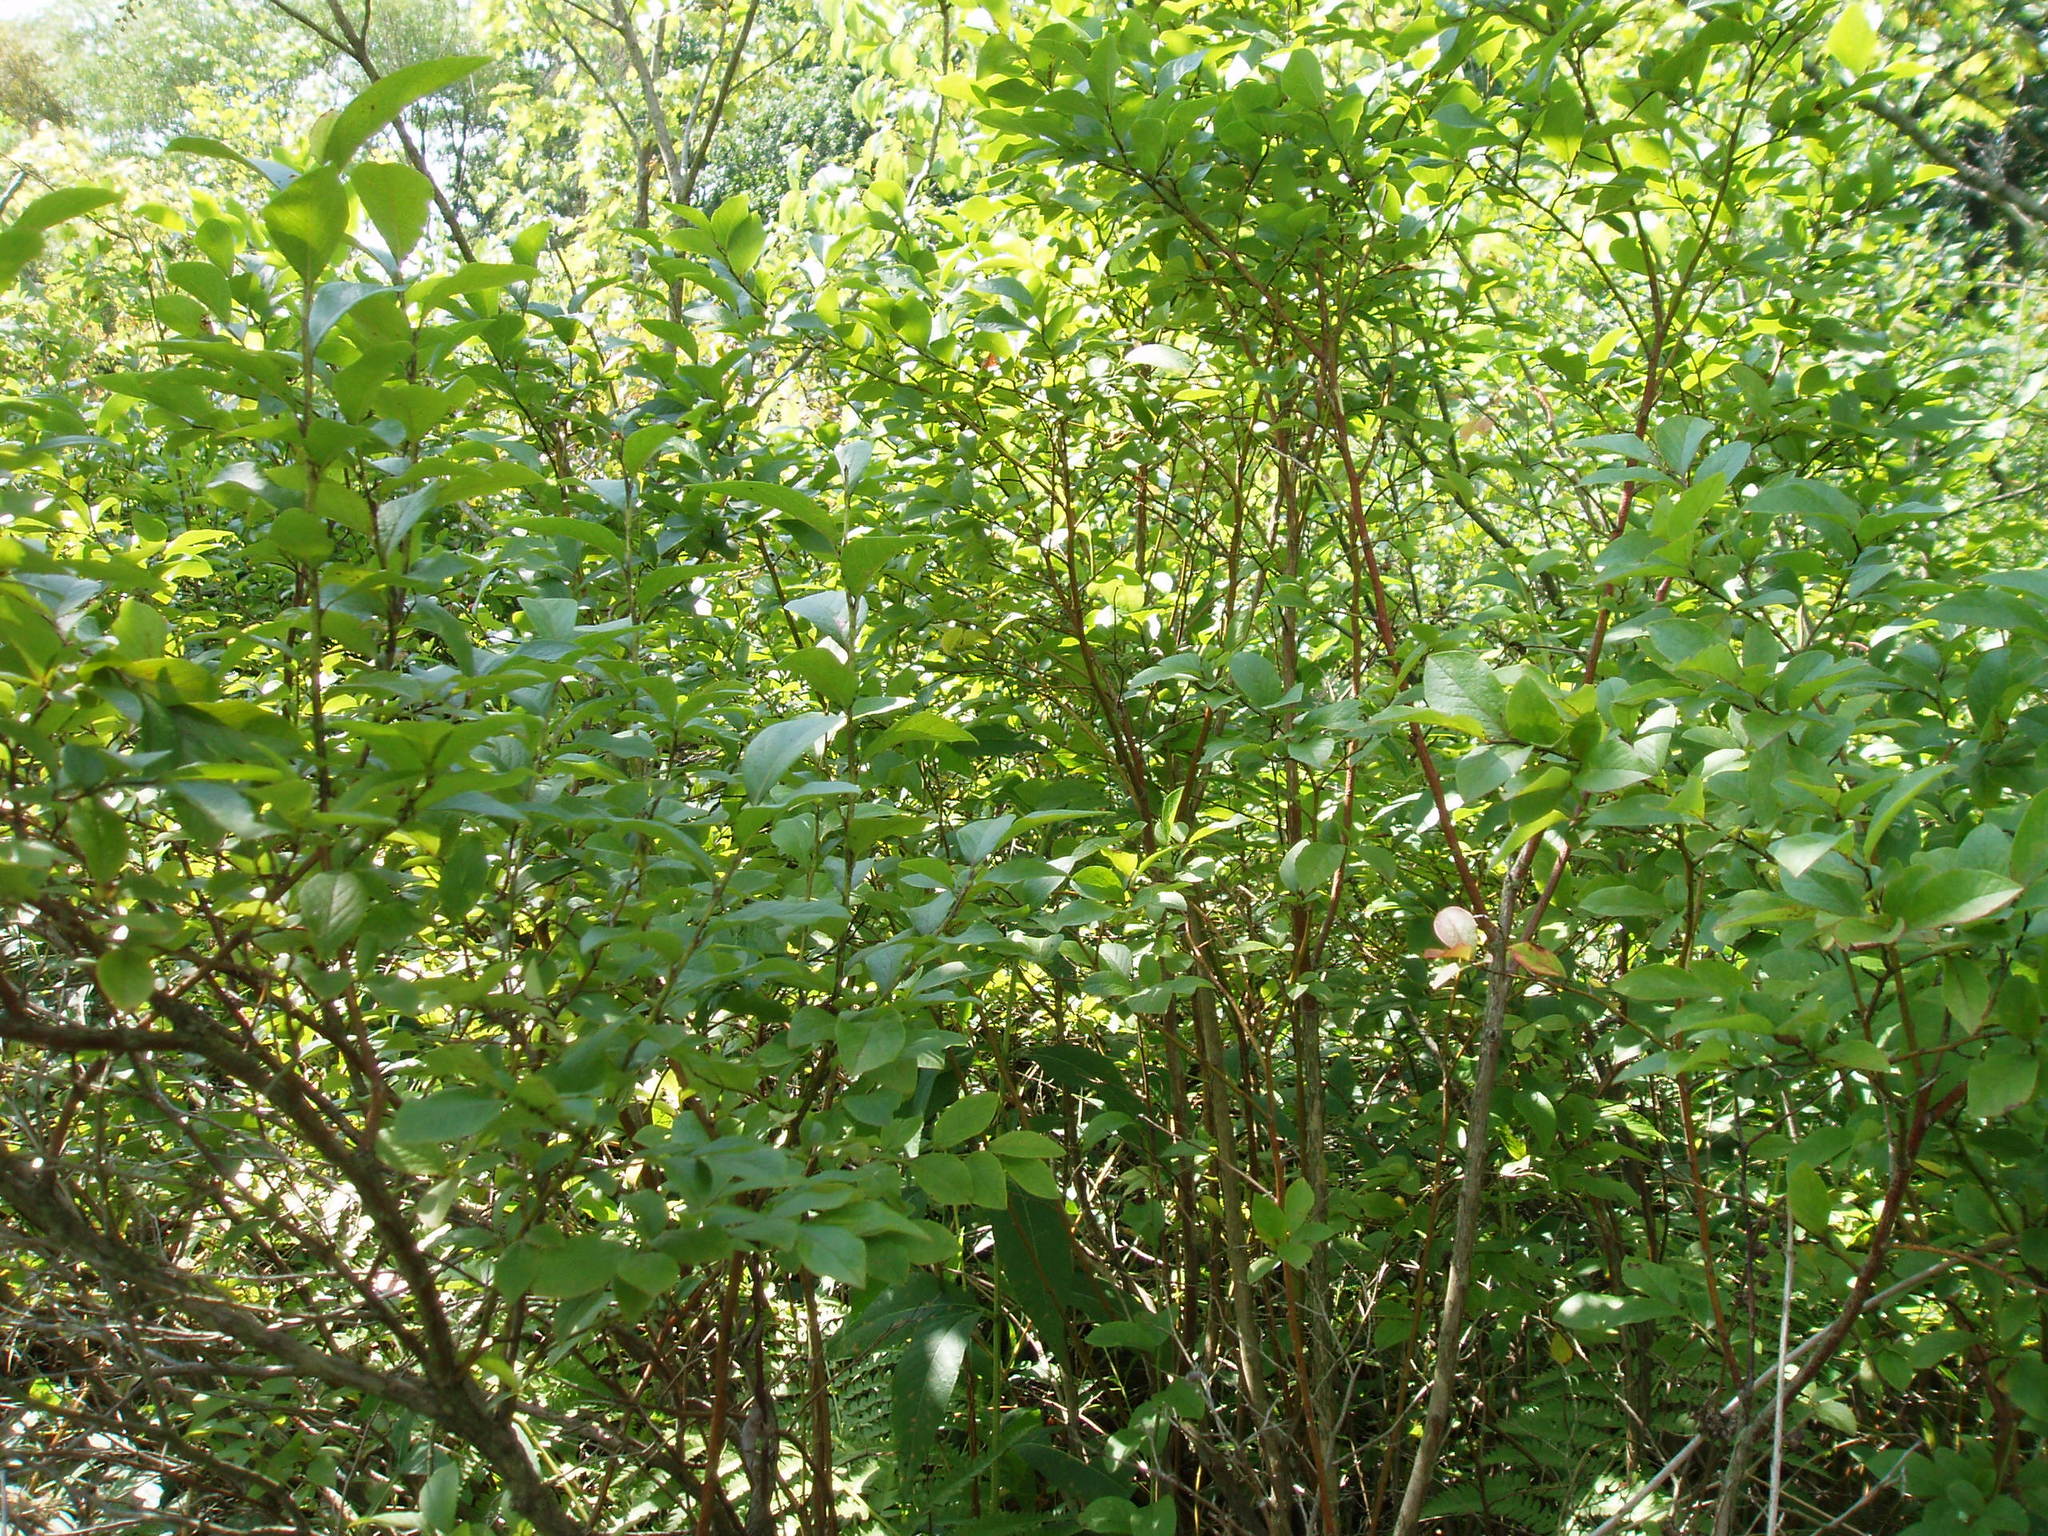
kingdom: Plantae
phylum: Tracheophyta
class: Magnoliopsida
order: Ericales
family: Ericaceae
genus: Vaccinium
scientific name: Vaccinium corymbosum
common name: Blueberry
